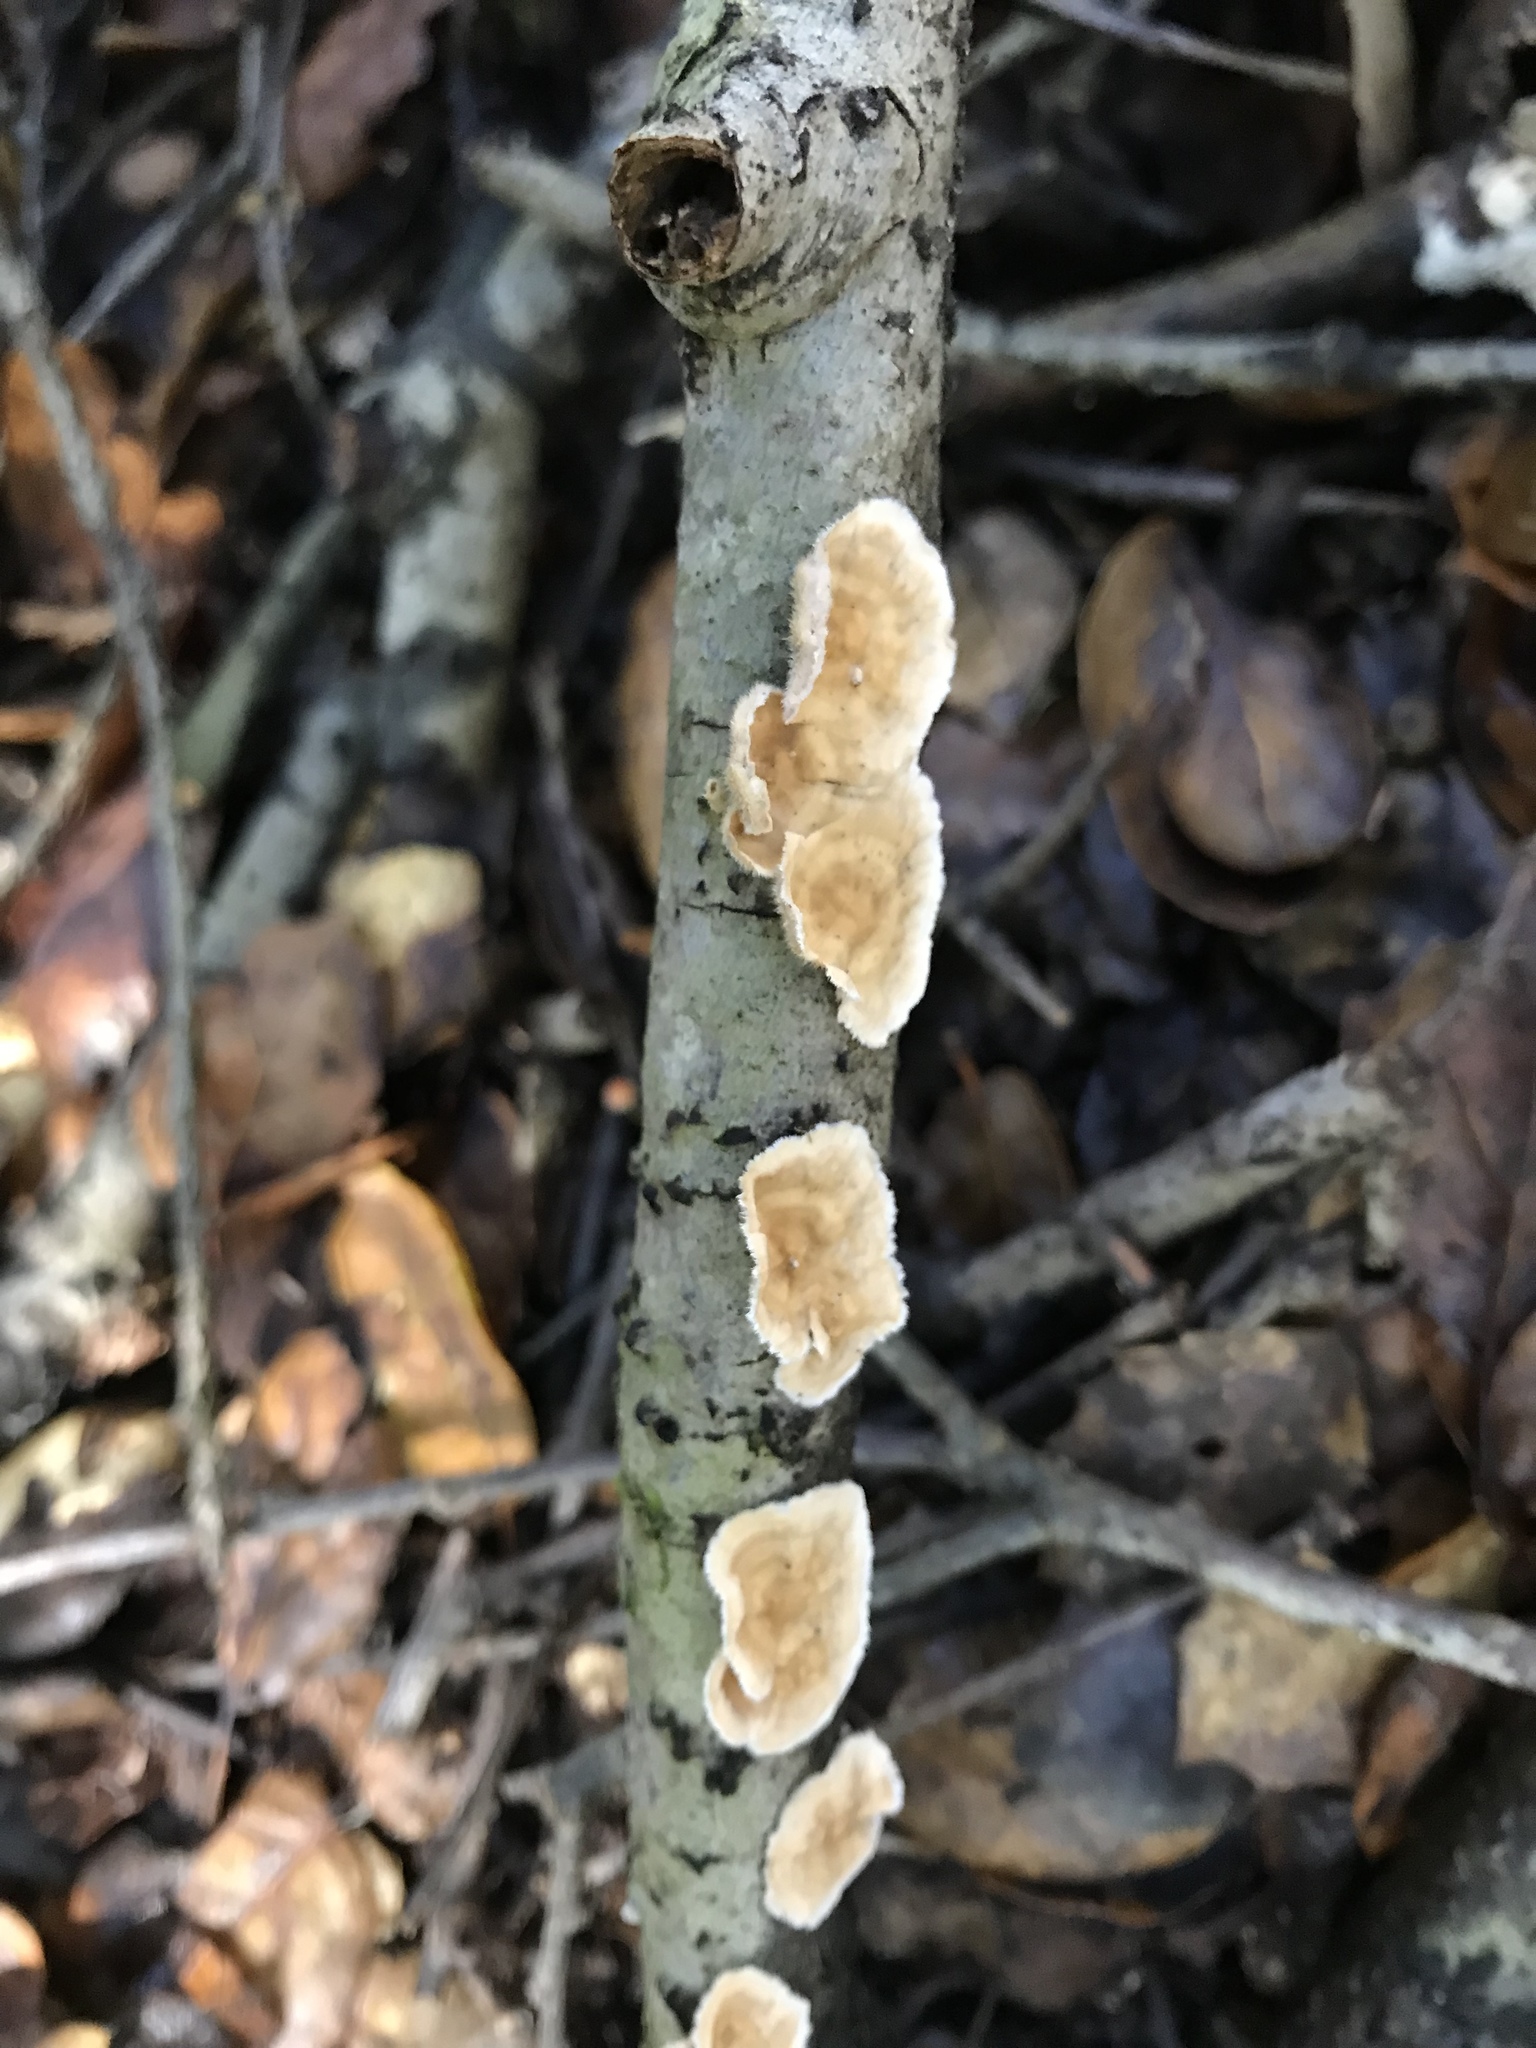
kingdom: Fungi
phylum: Basidiomycota
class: Agaricomycetes
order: Russulales
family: Stereaceae
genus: Stereum
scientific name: Stereum ochraceoflavum
